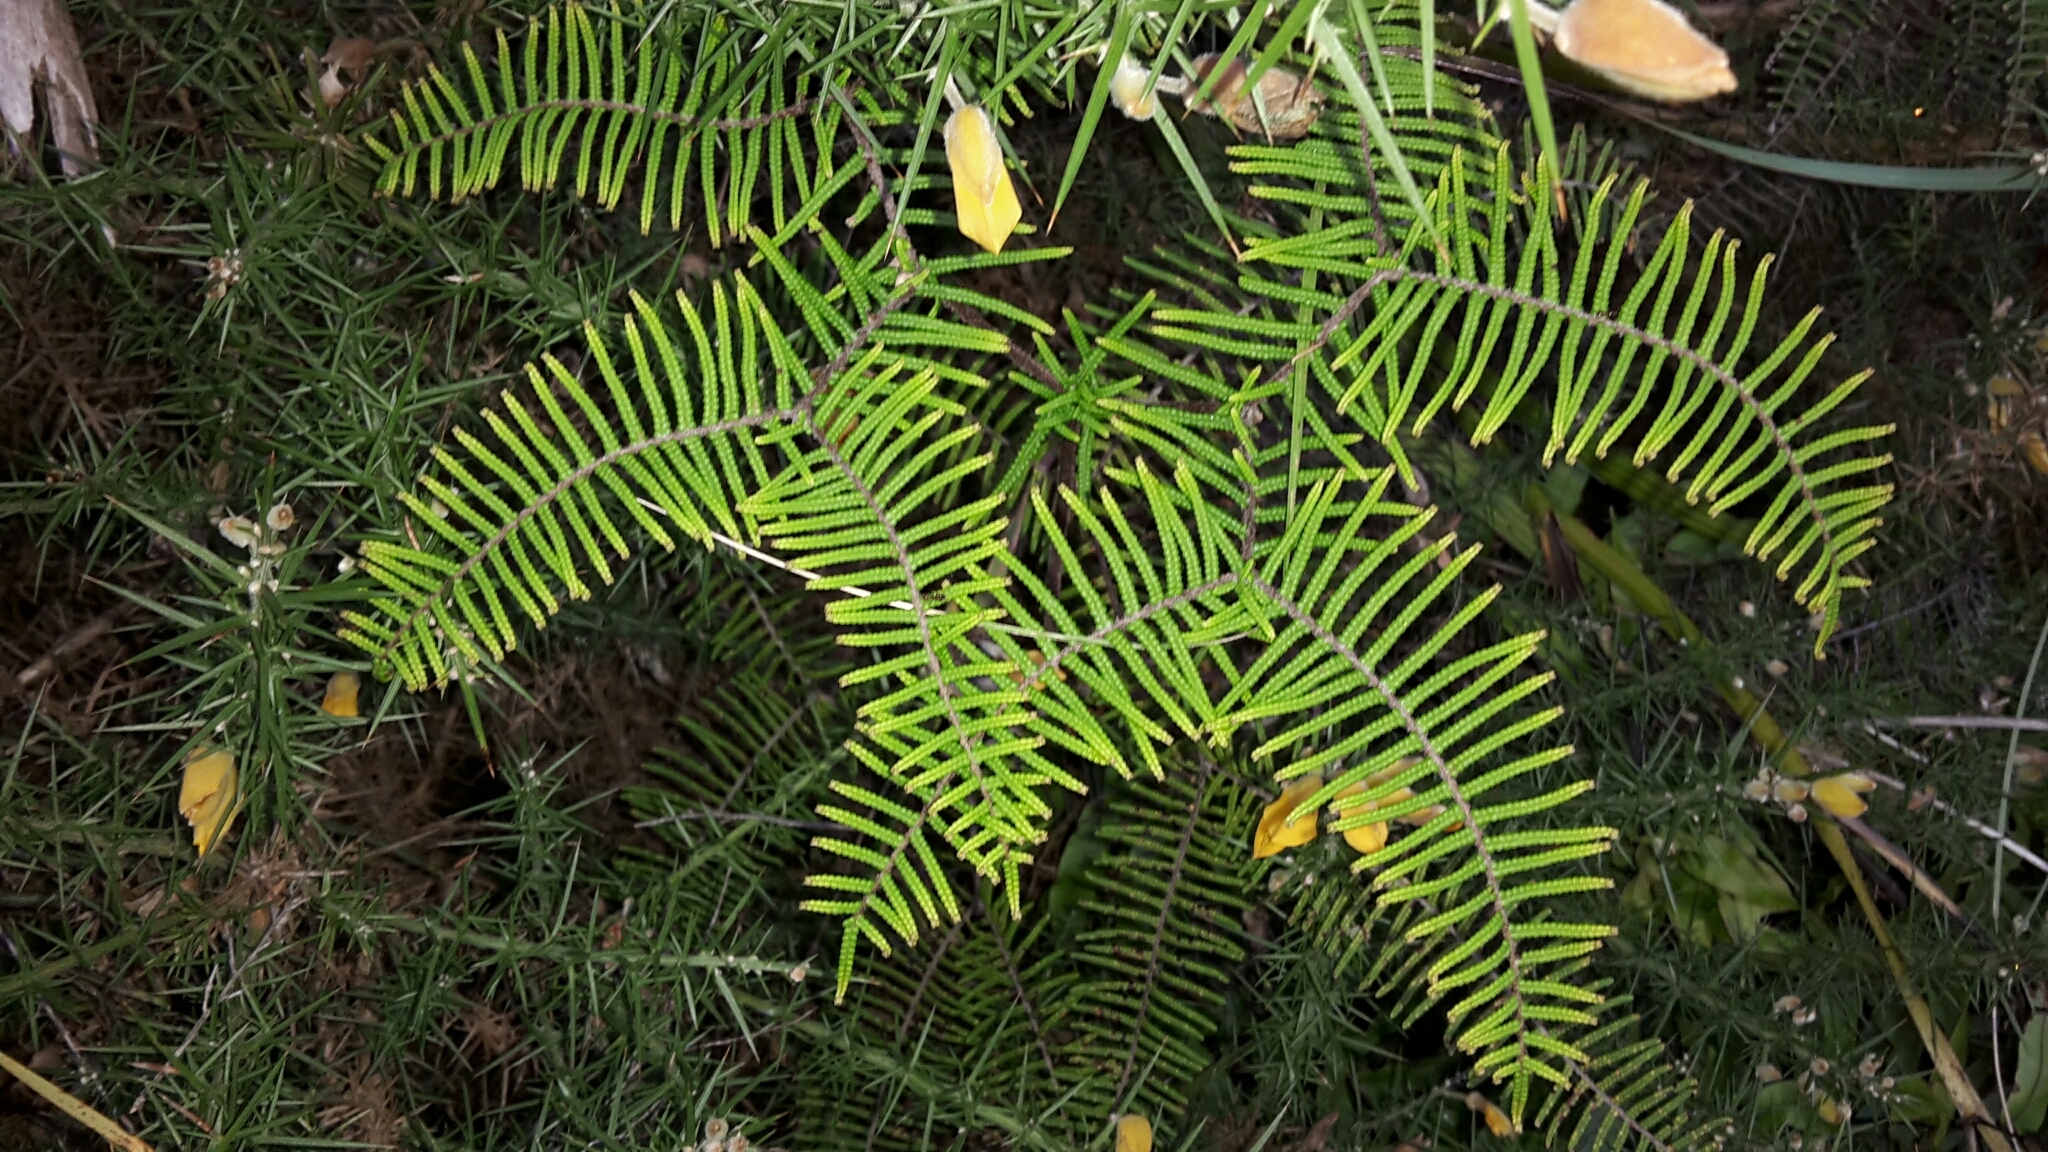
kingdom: Plantae
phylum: Tracheophyta
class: Polypodiopsida
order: Gleicheniales
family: Gleicheniaceae
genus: Gleichenia
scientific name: Gleichenia dicarpa
